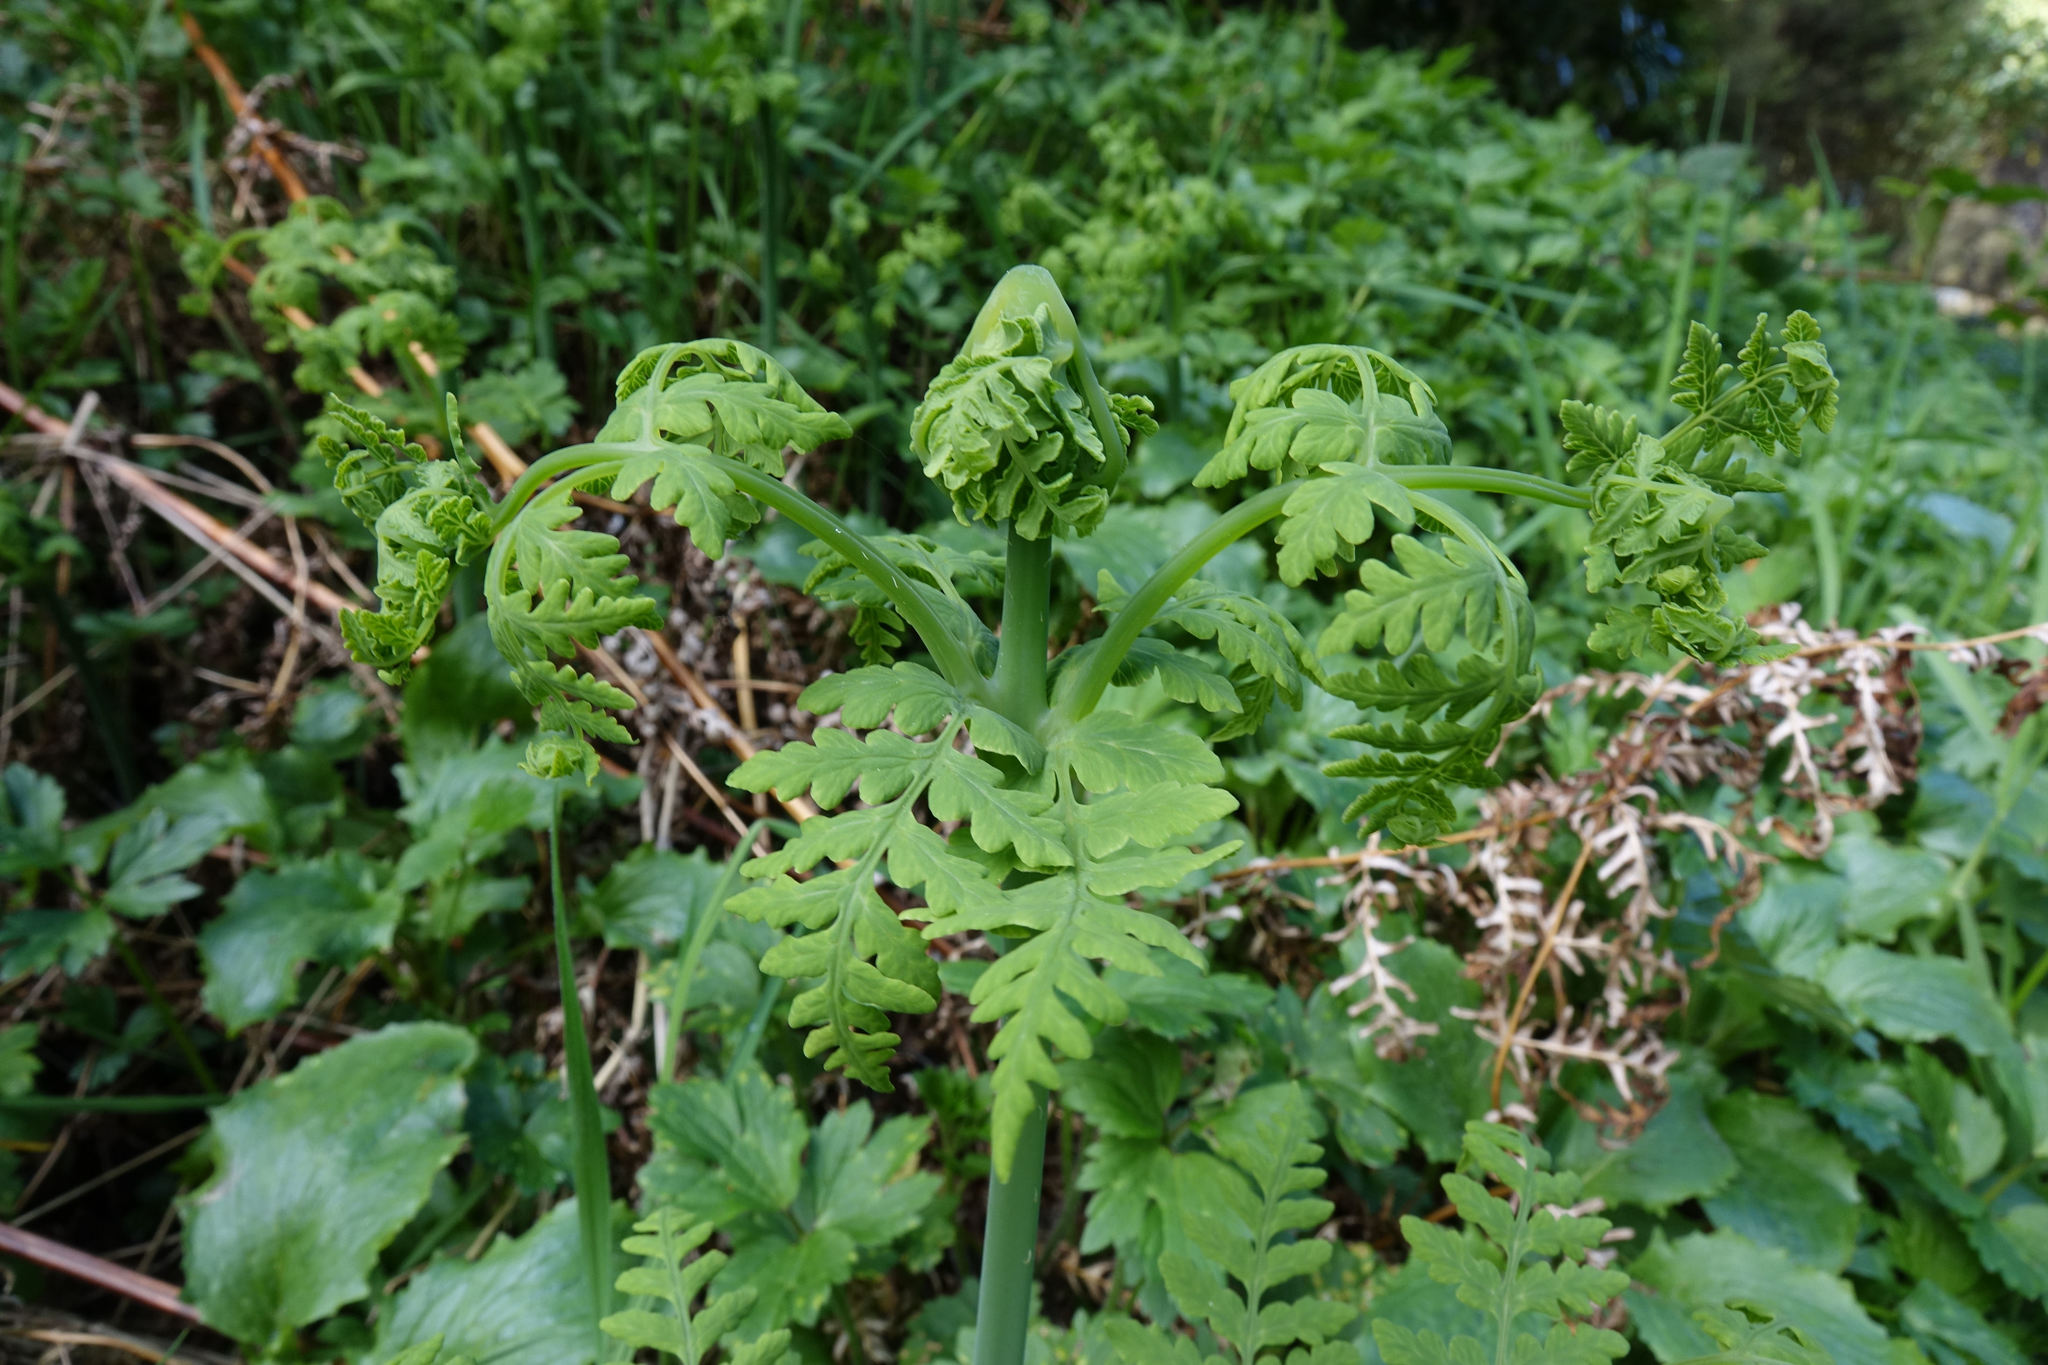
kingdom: Plantae
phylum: Tracheophyta
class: Polypodiopsida
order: Polypodiales
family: Dennstaedtiaceae
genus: Histiopteris
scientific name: Histiopteris incisa
